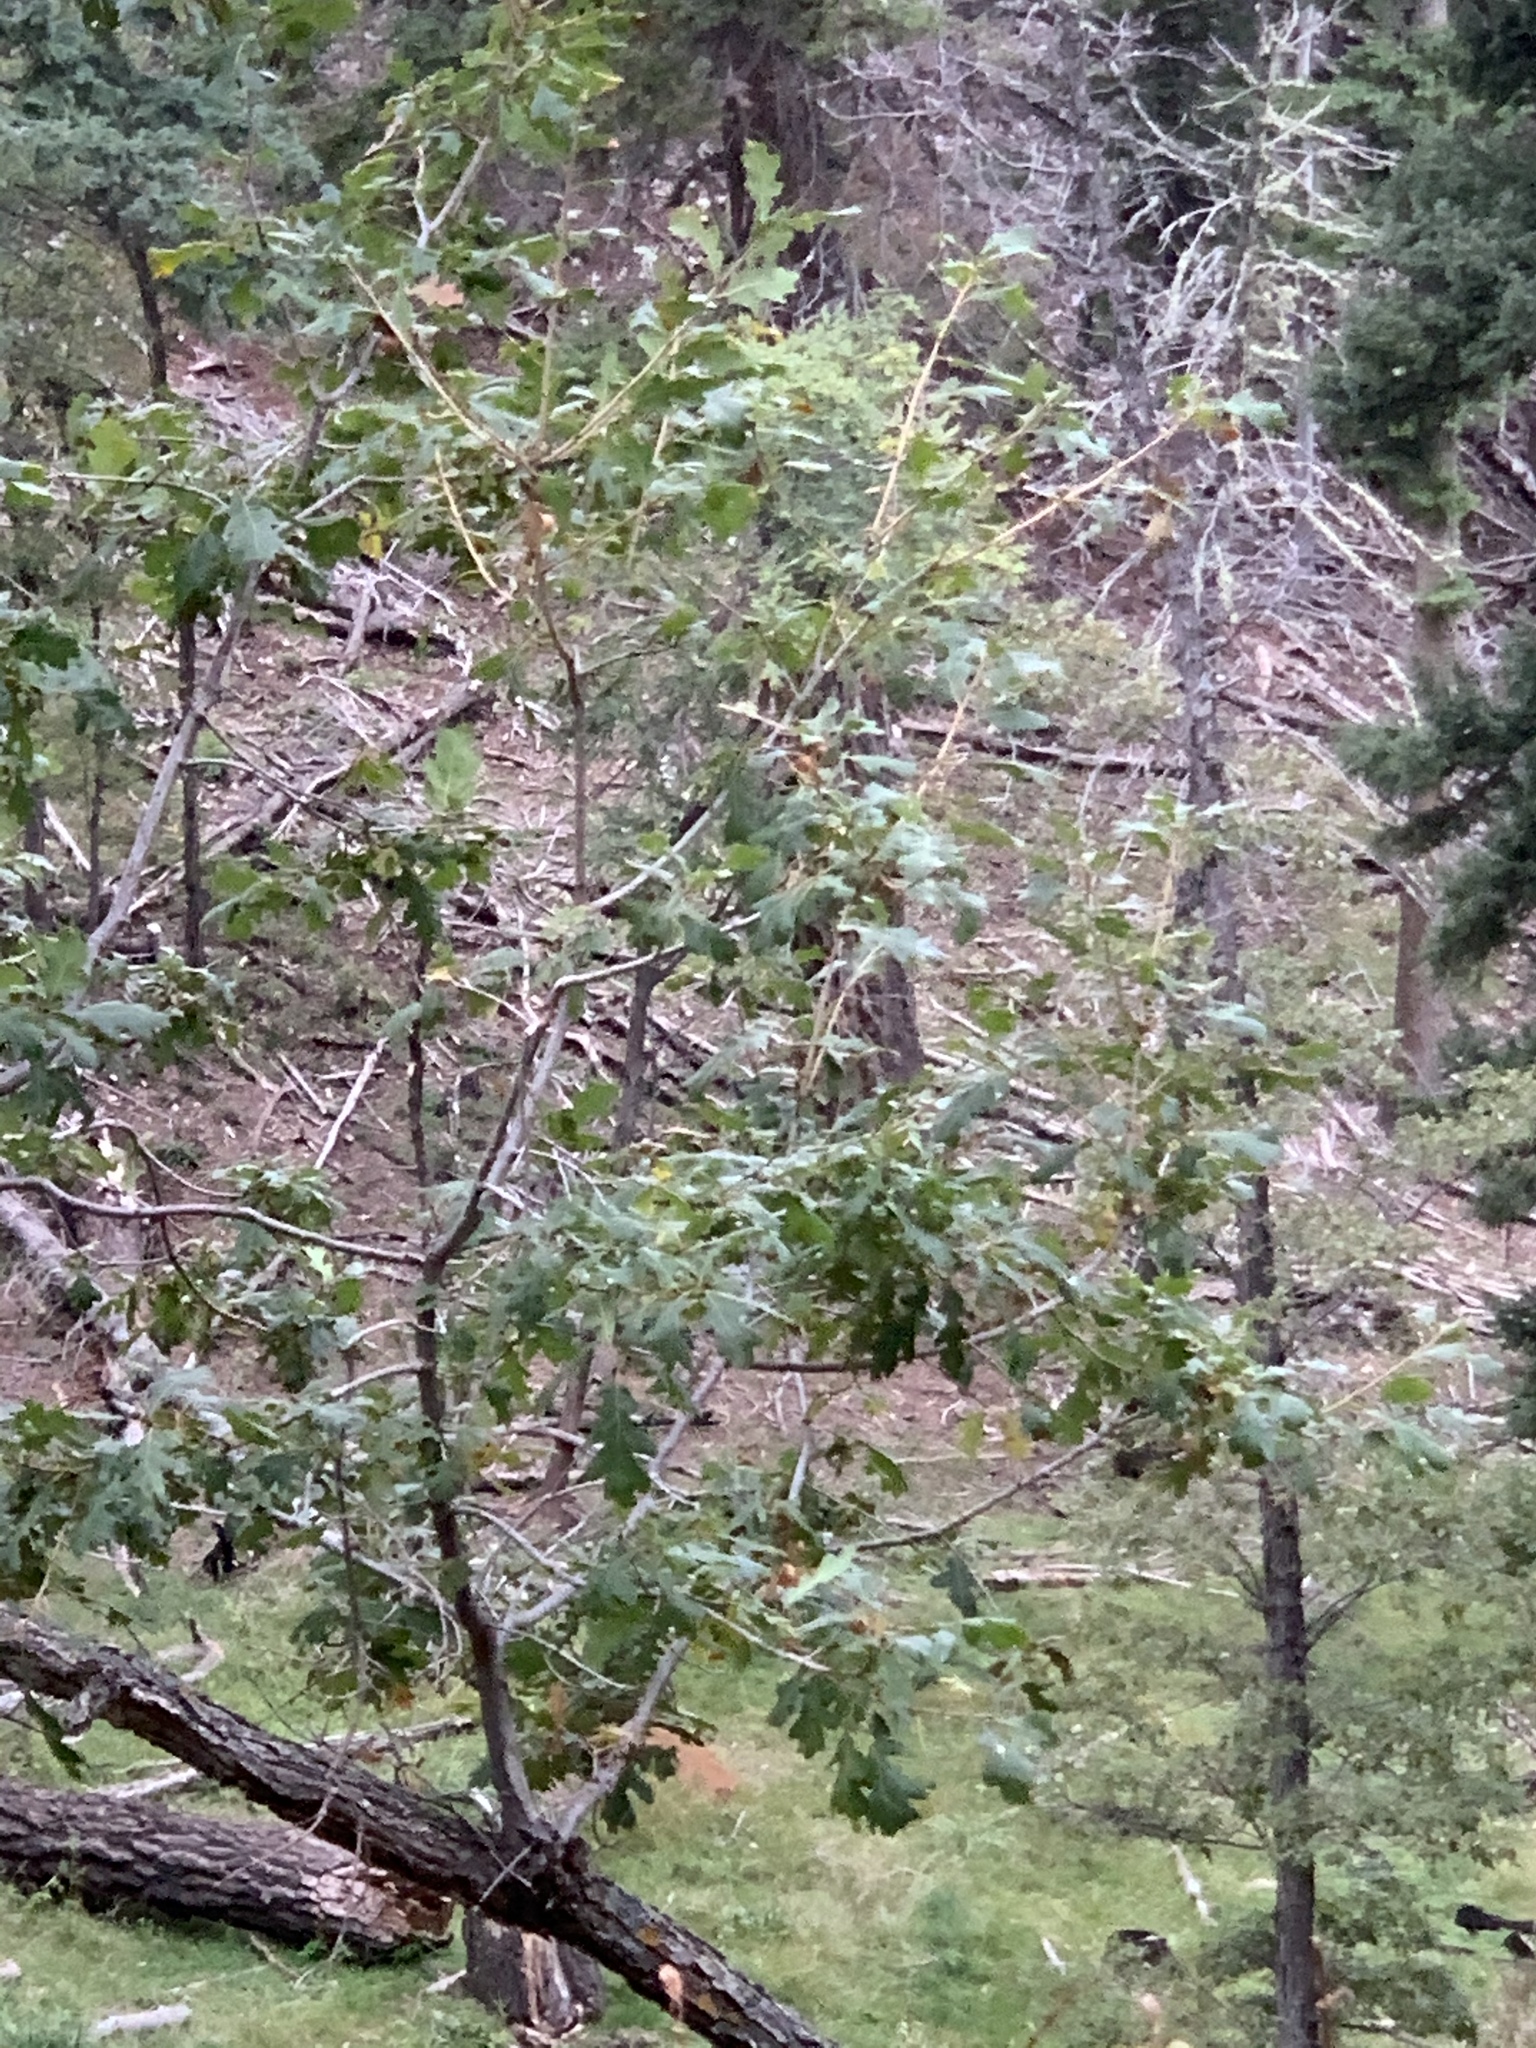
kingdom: Plantae
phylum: Tracheophyta
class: Magnoliopsida
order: Fagales
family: Fagaceae
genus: Quercus
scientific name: Quercus gambelii
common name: Gambel oak
